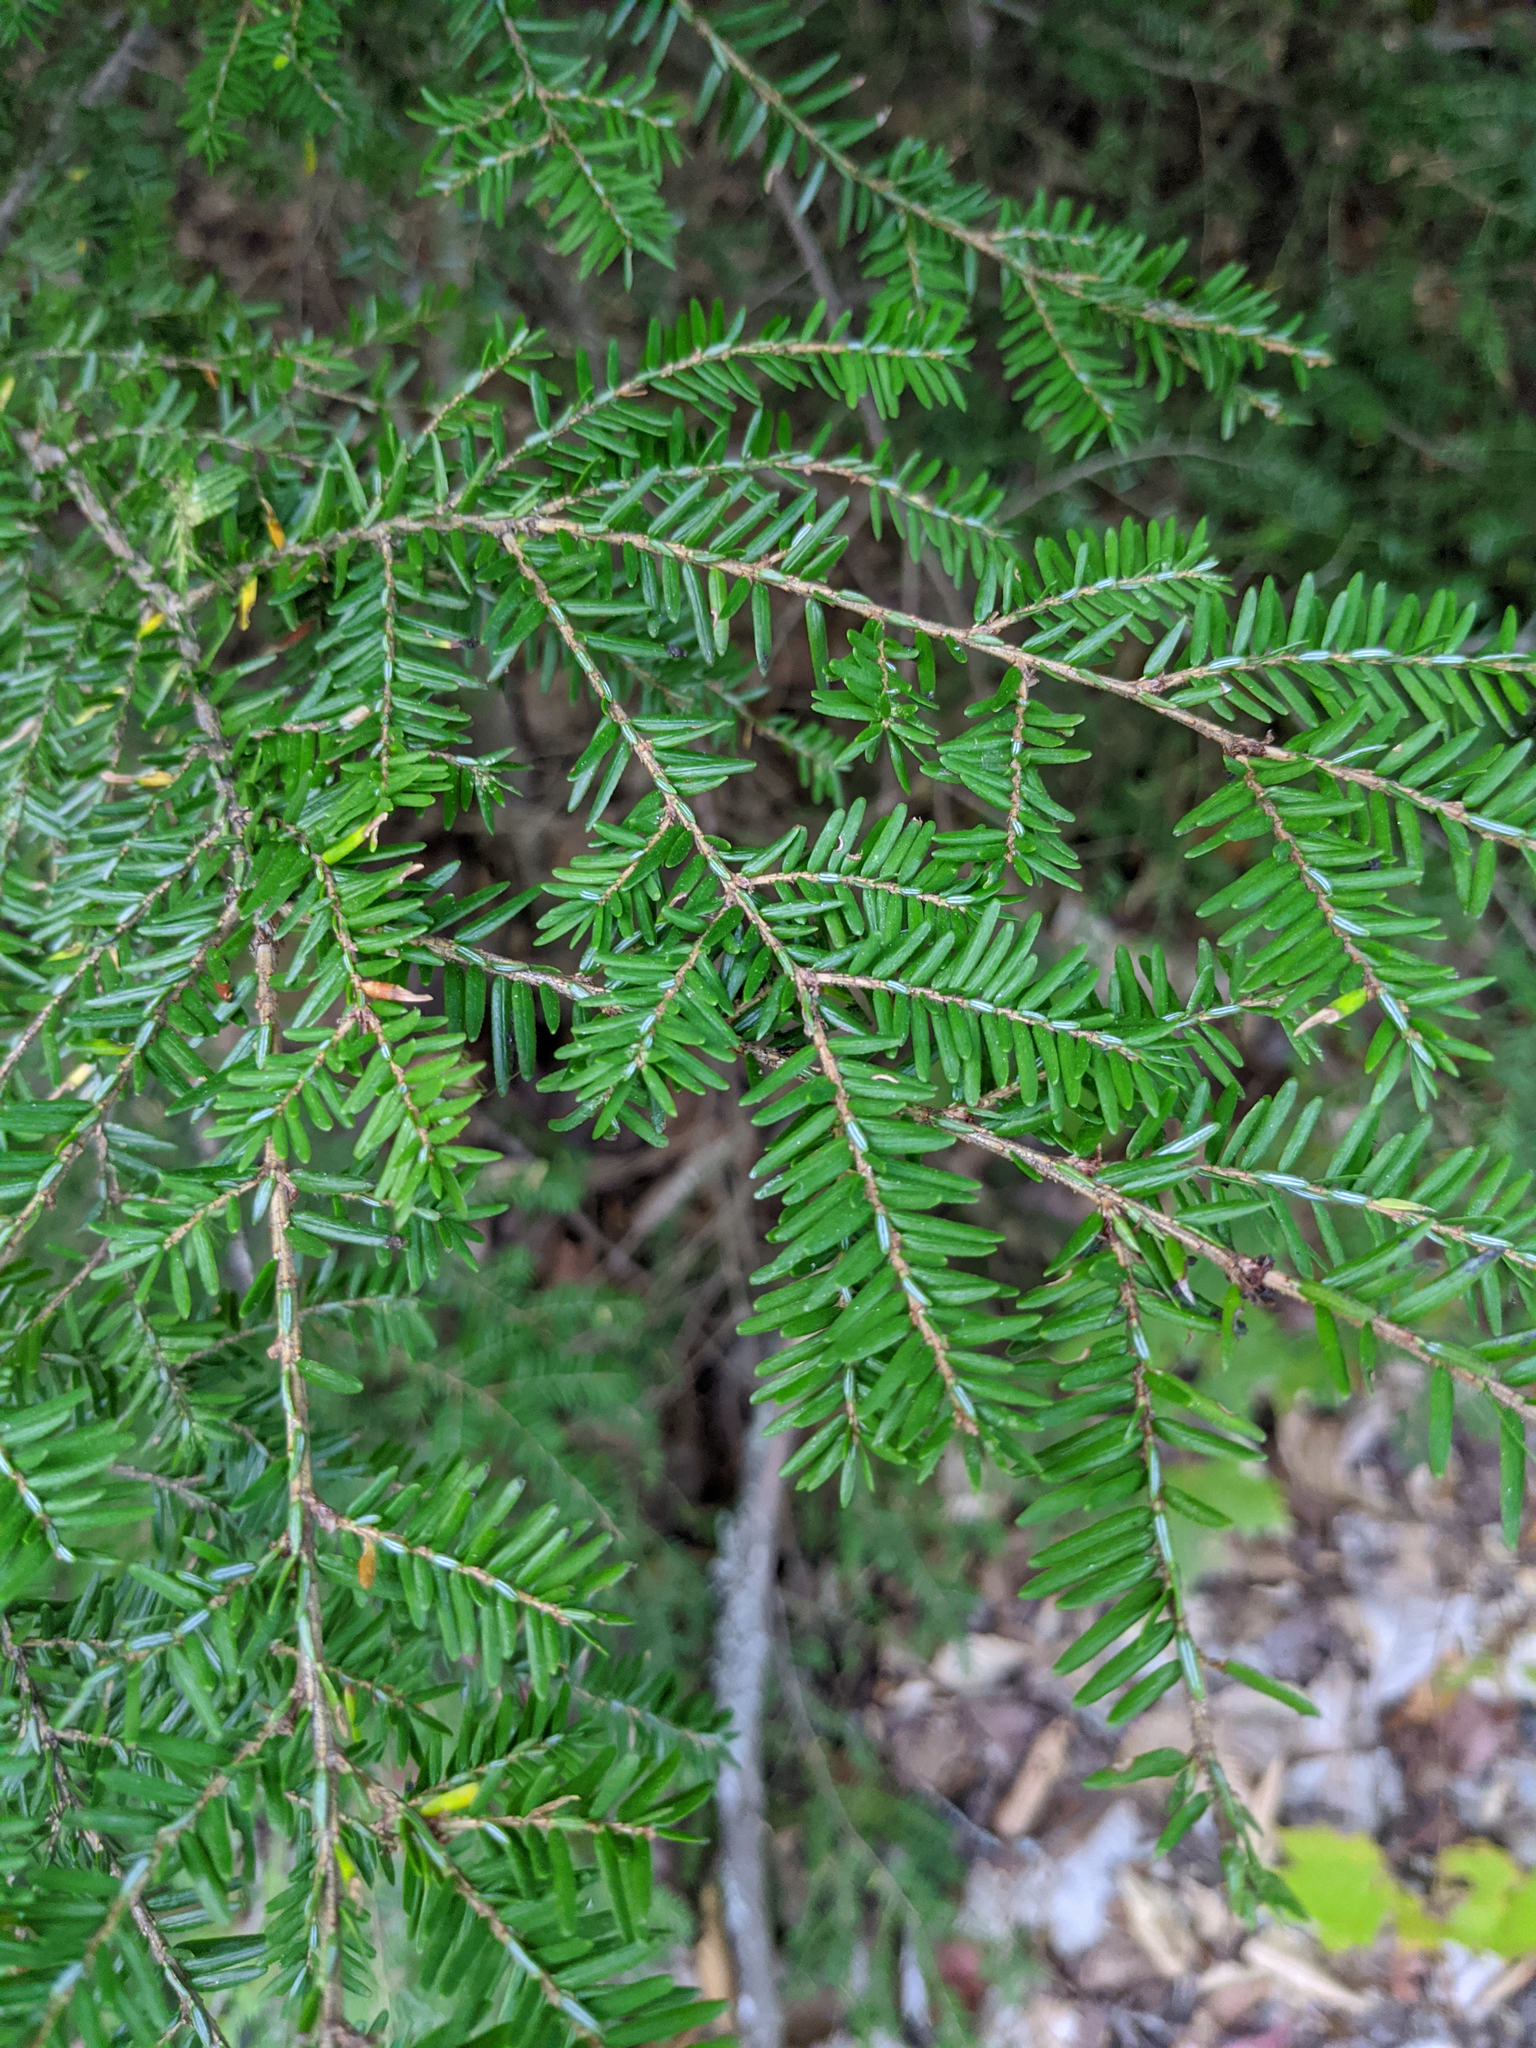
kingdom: Plantae
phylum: Tracheophyta
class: Pinopsida
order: Pinales
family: Pinaceae
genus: Tsuga
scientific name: Tsuga canadensis
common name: Eastern hemlock
